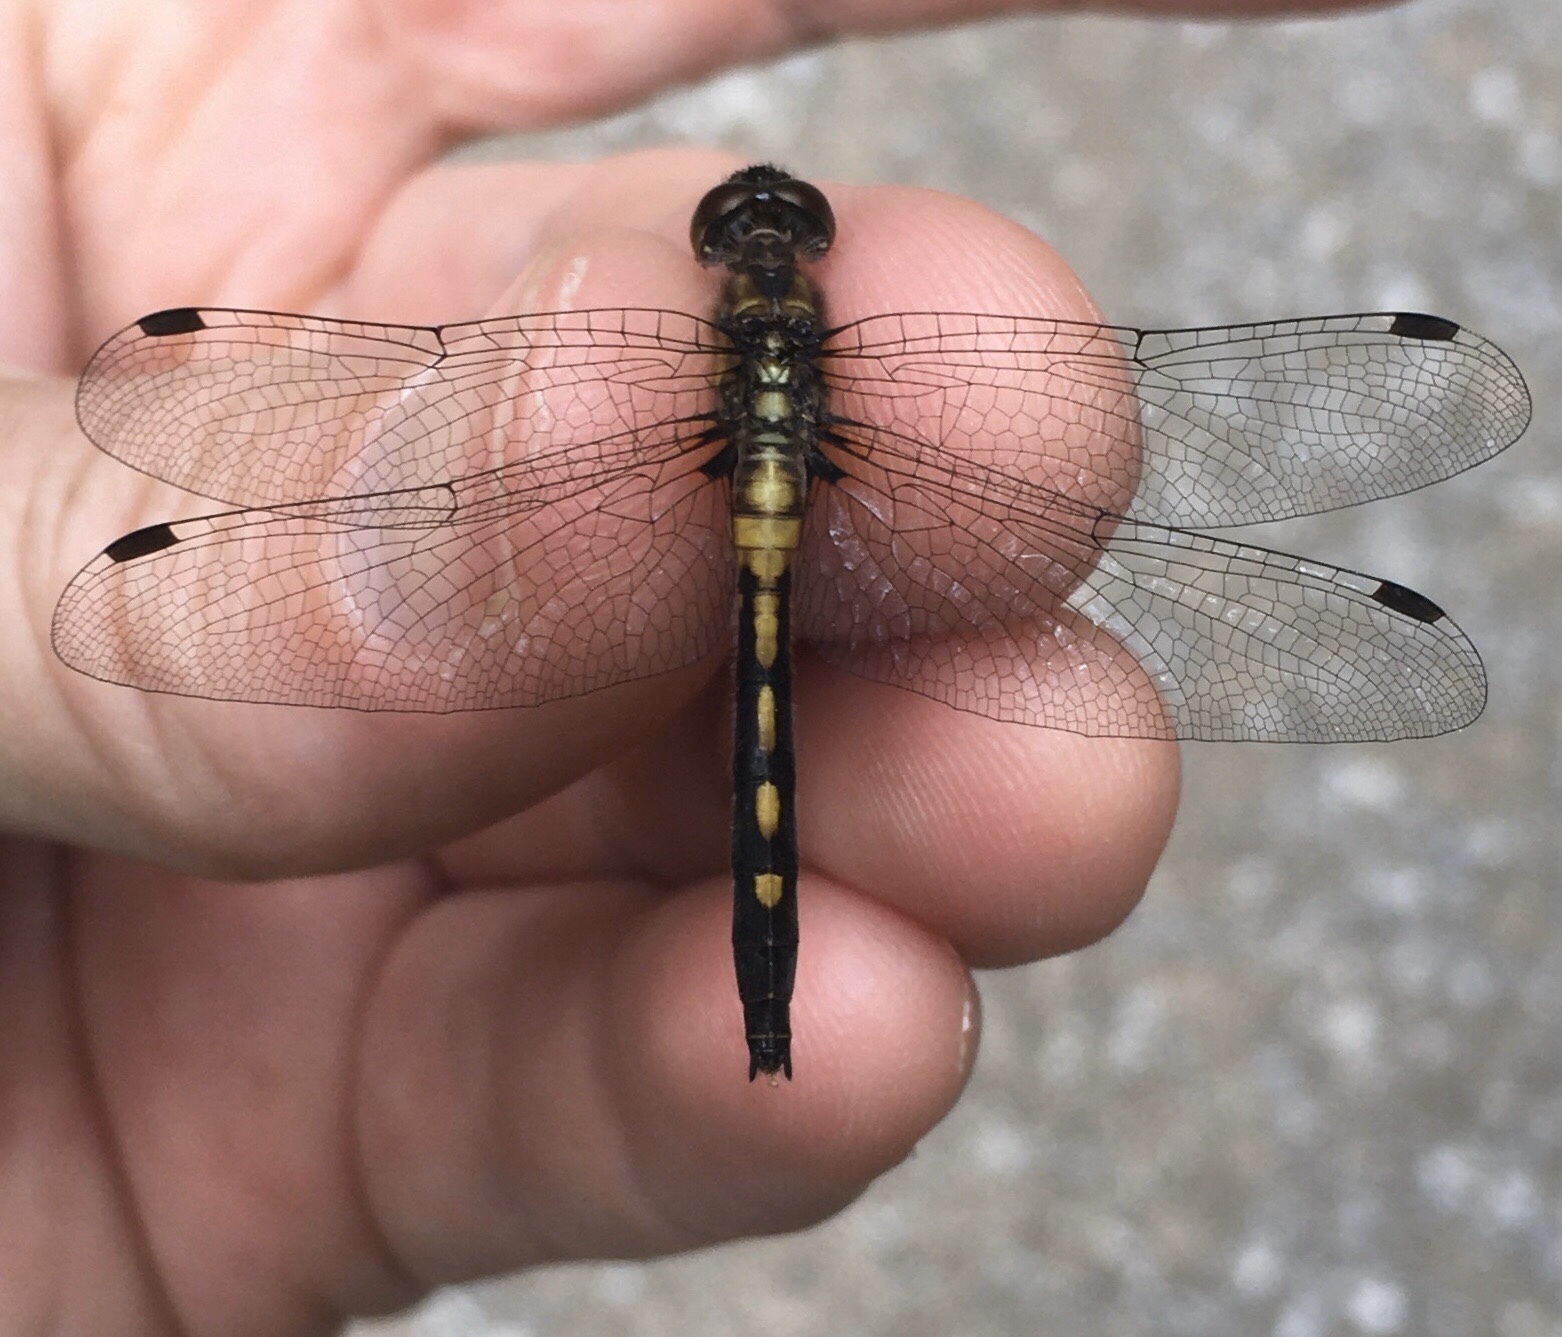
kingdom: Animalia
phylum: Arthropoda
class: Insecta
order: Odonata
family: Libellulidae
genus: Leucorrhinia
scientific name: Leucorrhinia intacta
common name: Dot-tailed whiteface
